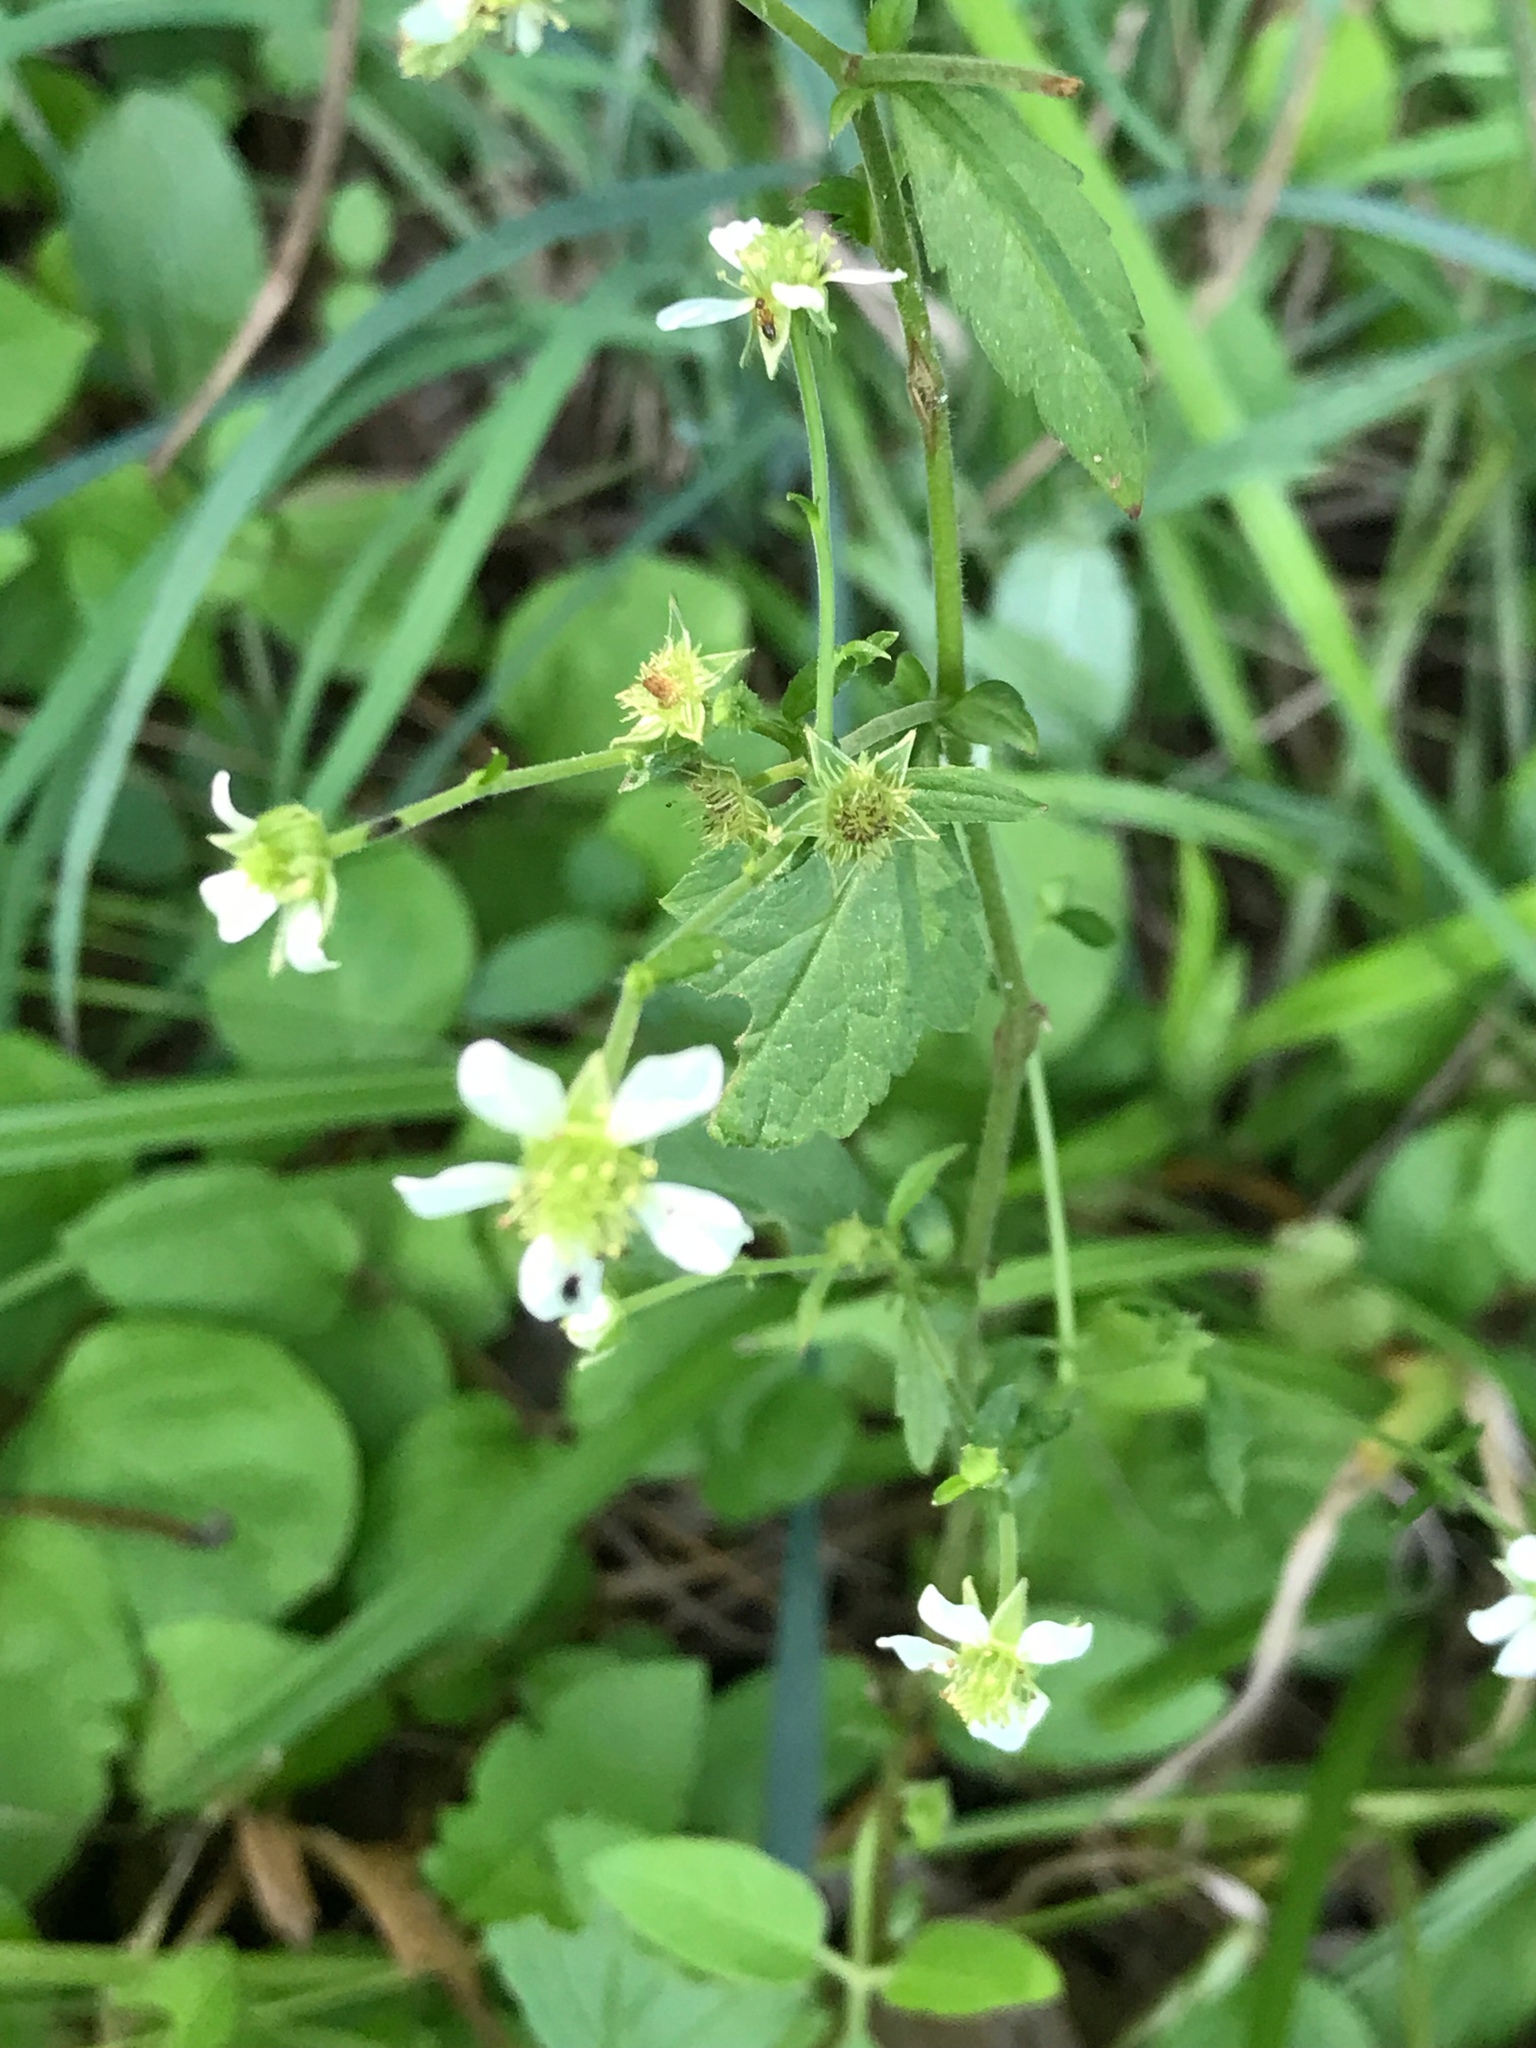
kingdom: Plantae
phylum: Tracheophyta
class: Magnoliopsida
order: Rosales
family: Rosaceae
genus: Geum
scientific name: Geum canadense
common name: White avens
